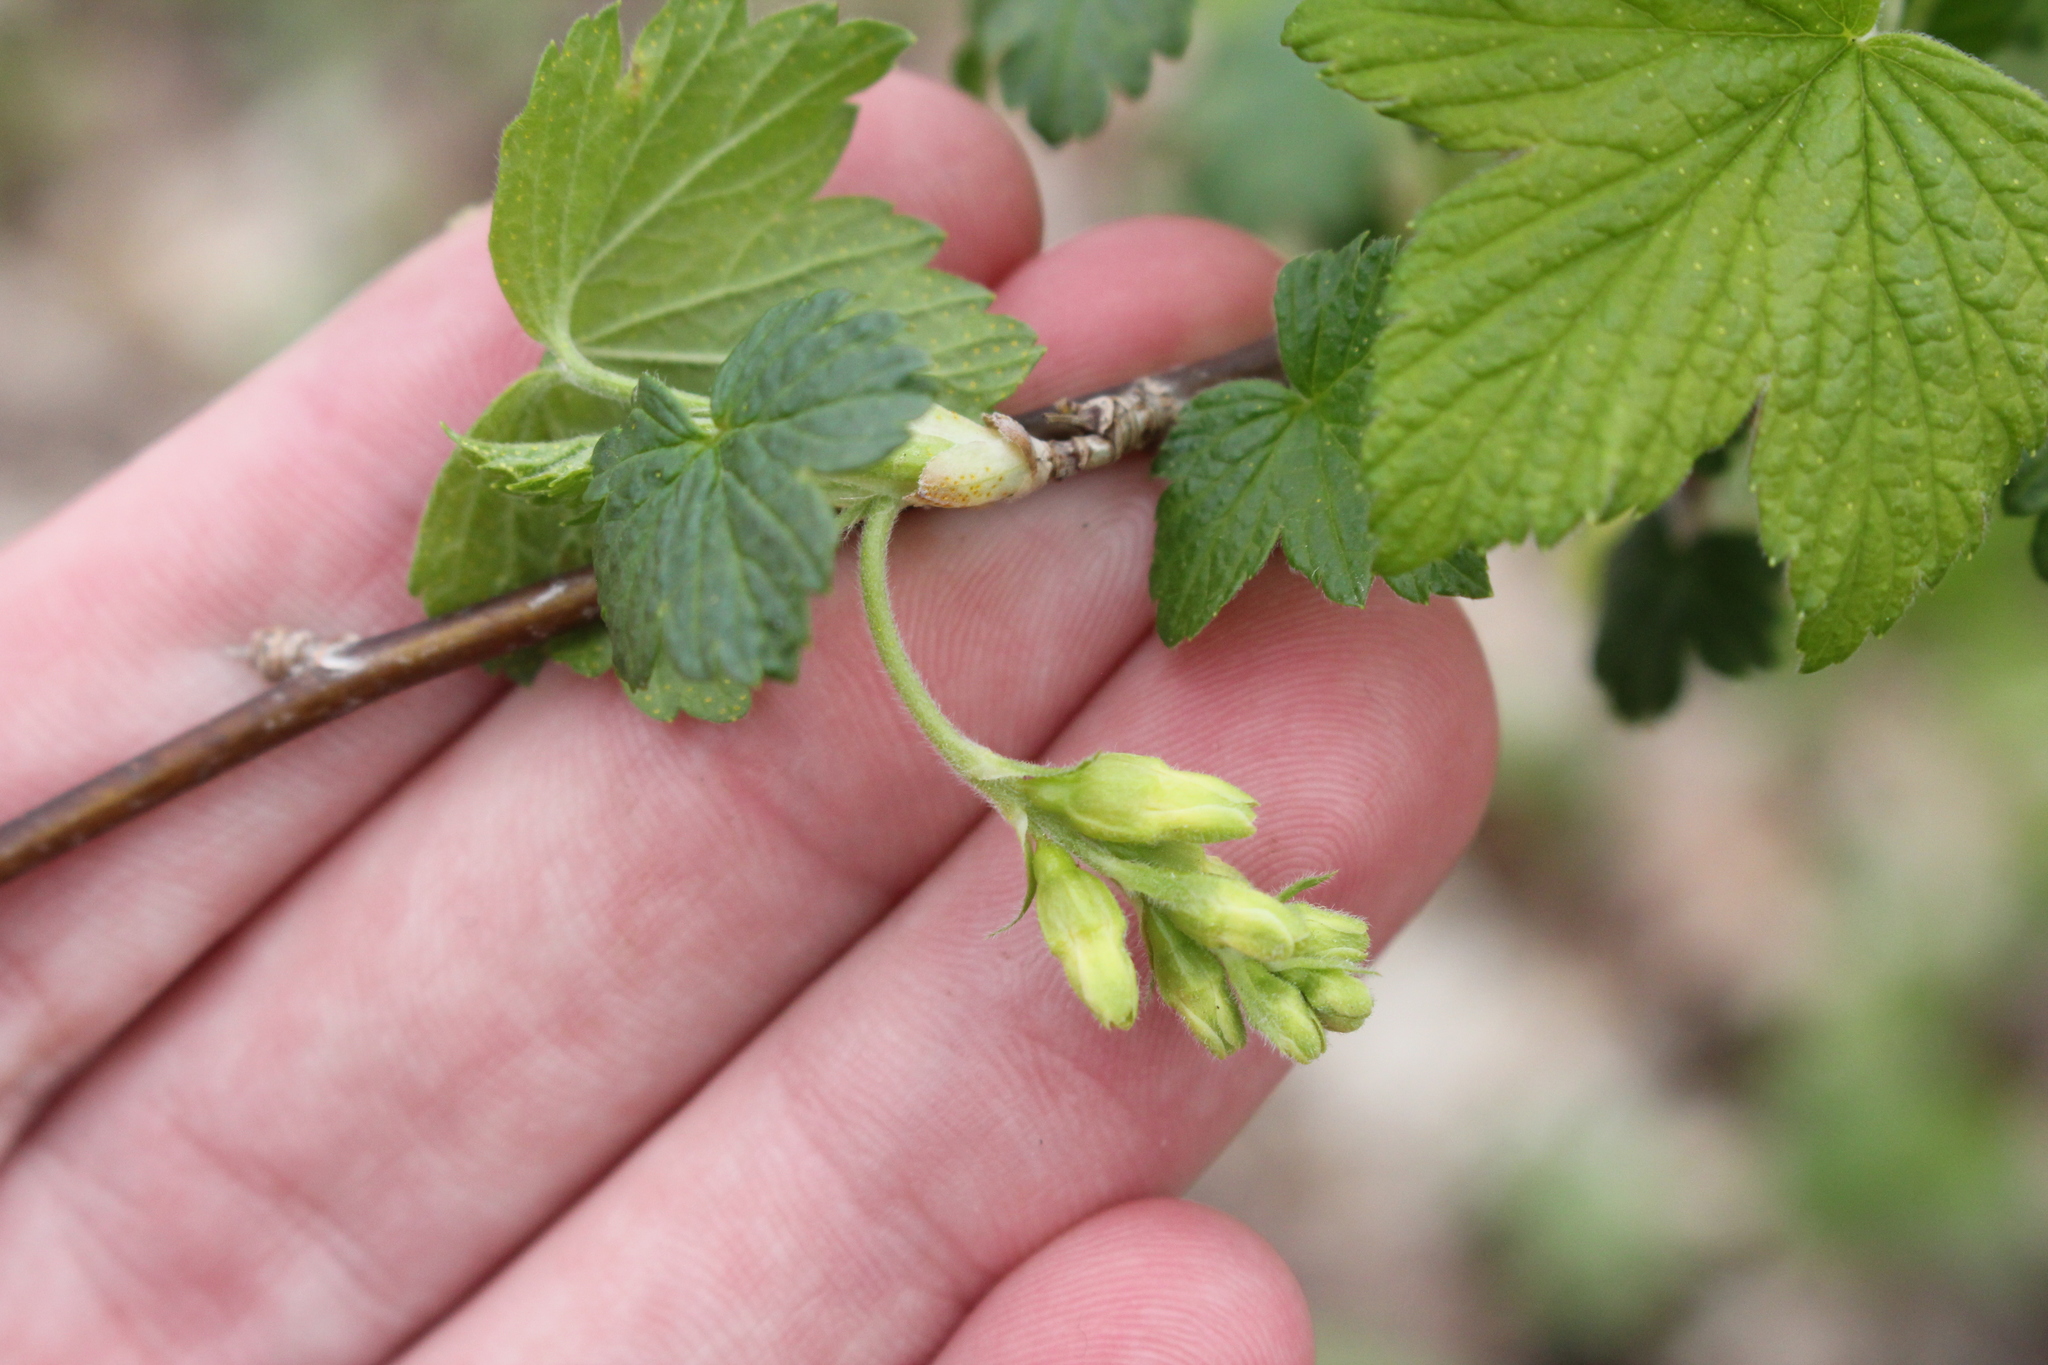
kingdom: Plantae
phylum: Tracheophyta
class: Magnoliopsida
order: Saxifragales
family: Grossulariaceae
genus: Ribes
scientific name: Ribes americanum
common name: American black currant
